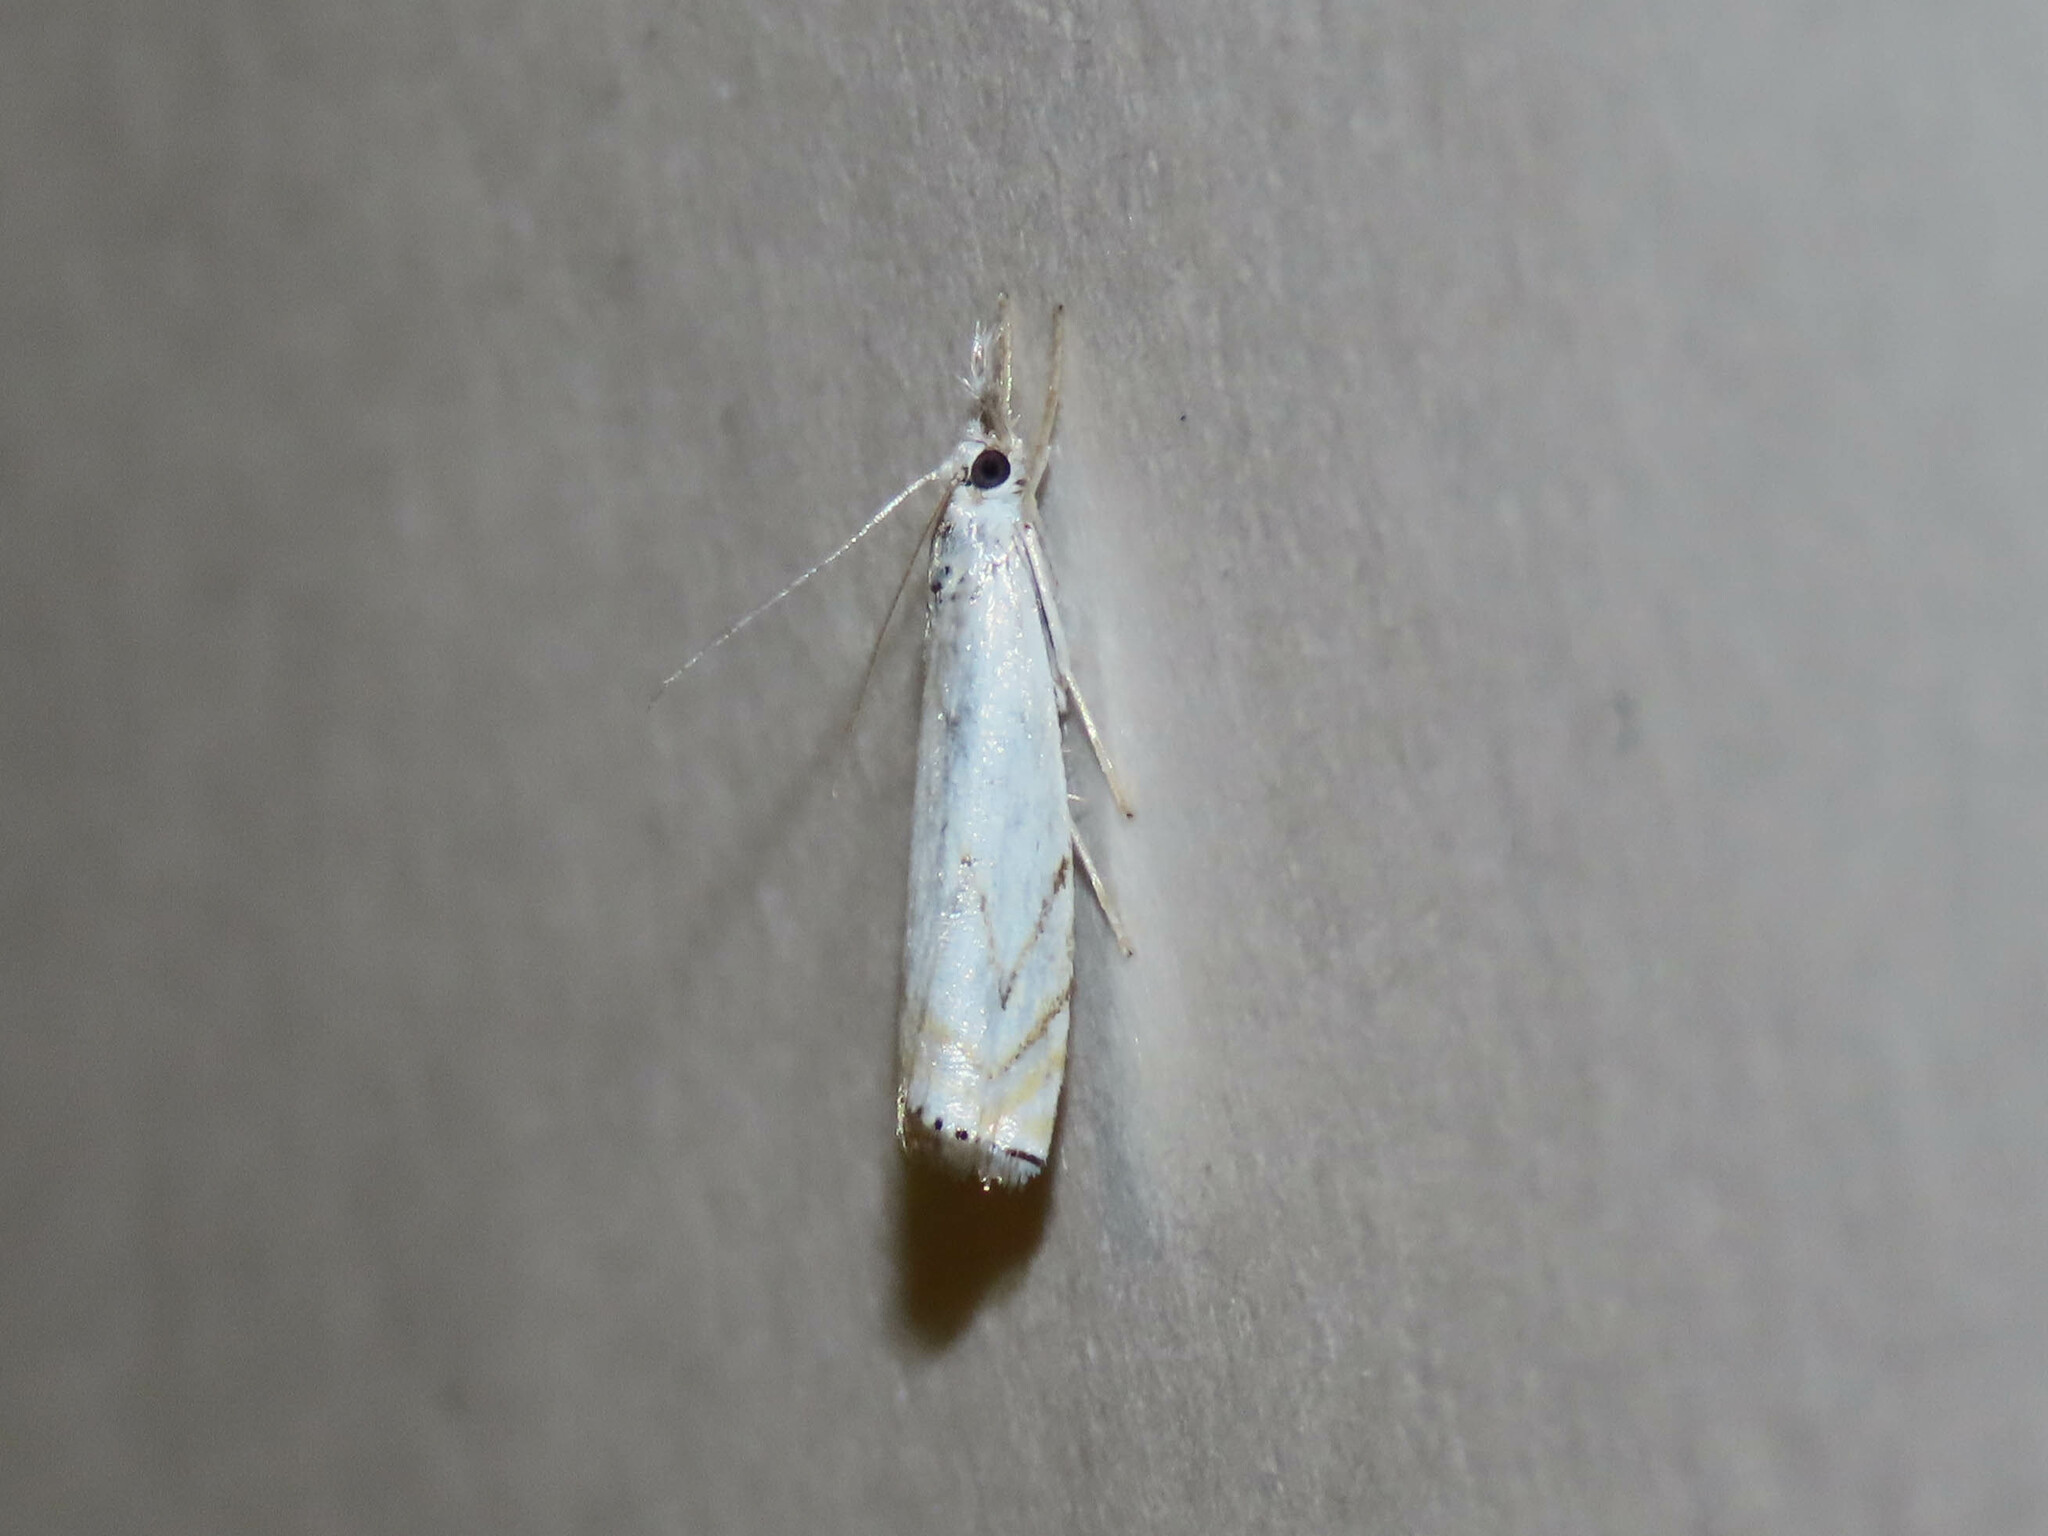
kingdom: Animalia
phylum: Arthropoda
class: Insecta
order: Lepidoptera
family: Crambidae
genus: Crambus
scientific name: Crambus albellus
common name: Small white grass-veneer
